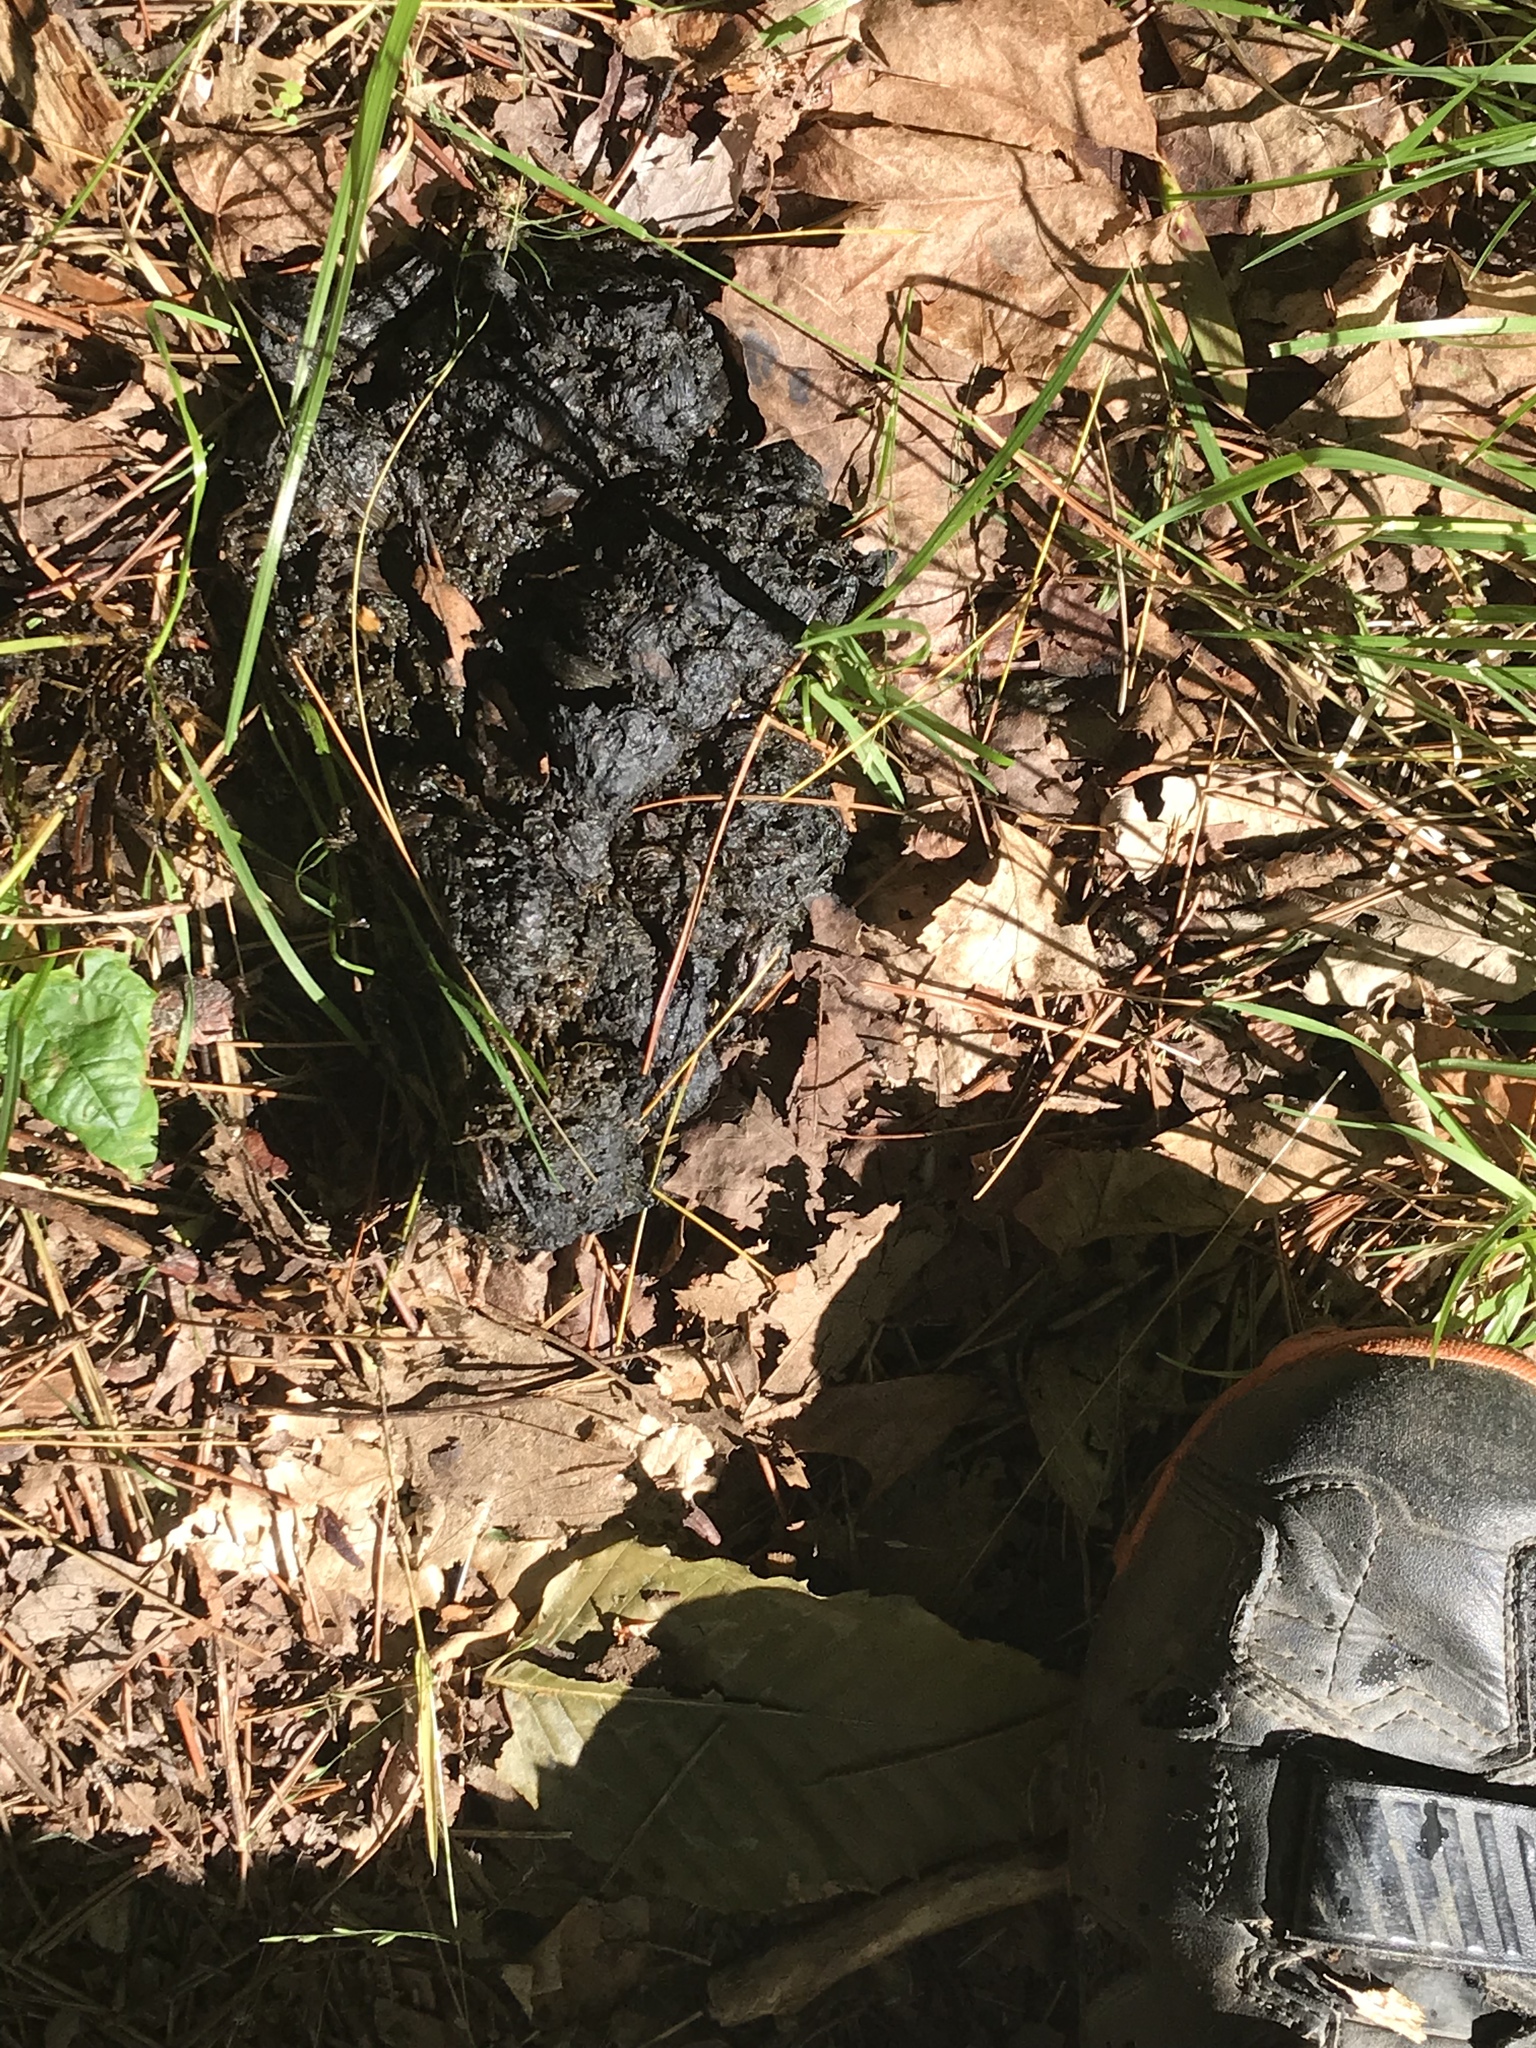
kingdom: Animalia
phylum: Chordata
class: Mammalia
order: Carnivora
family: Ursidae
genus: Ursus
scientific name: Ursus americanus
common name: American black bear
